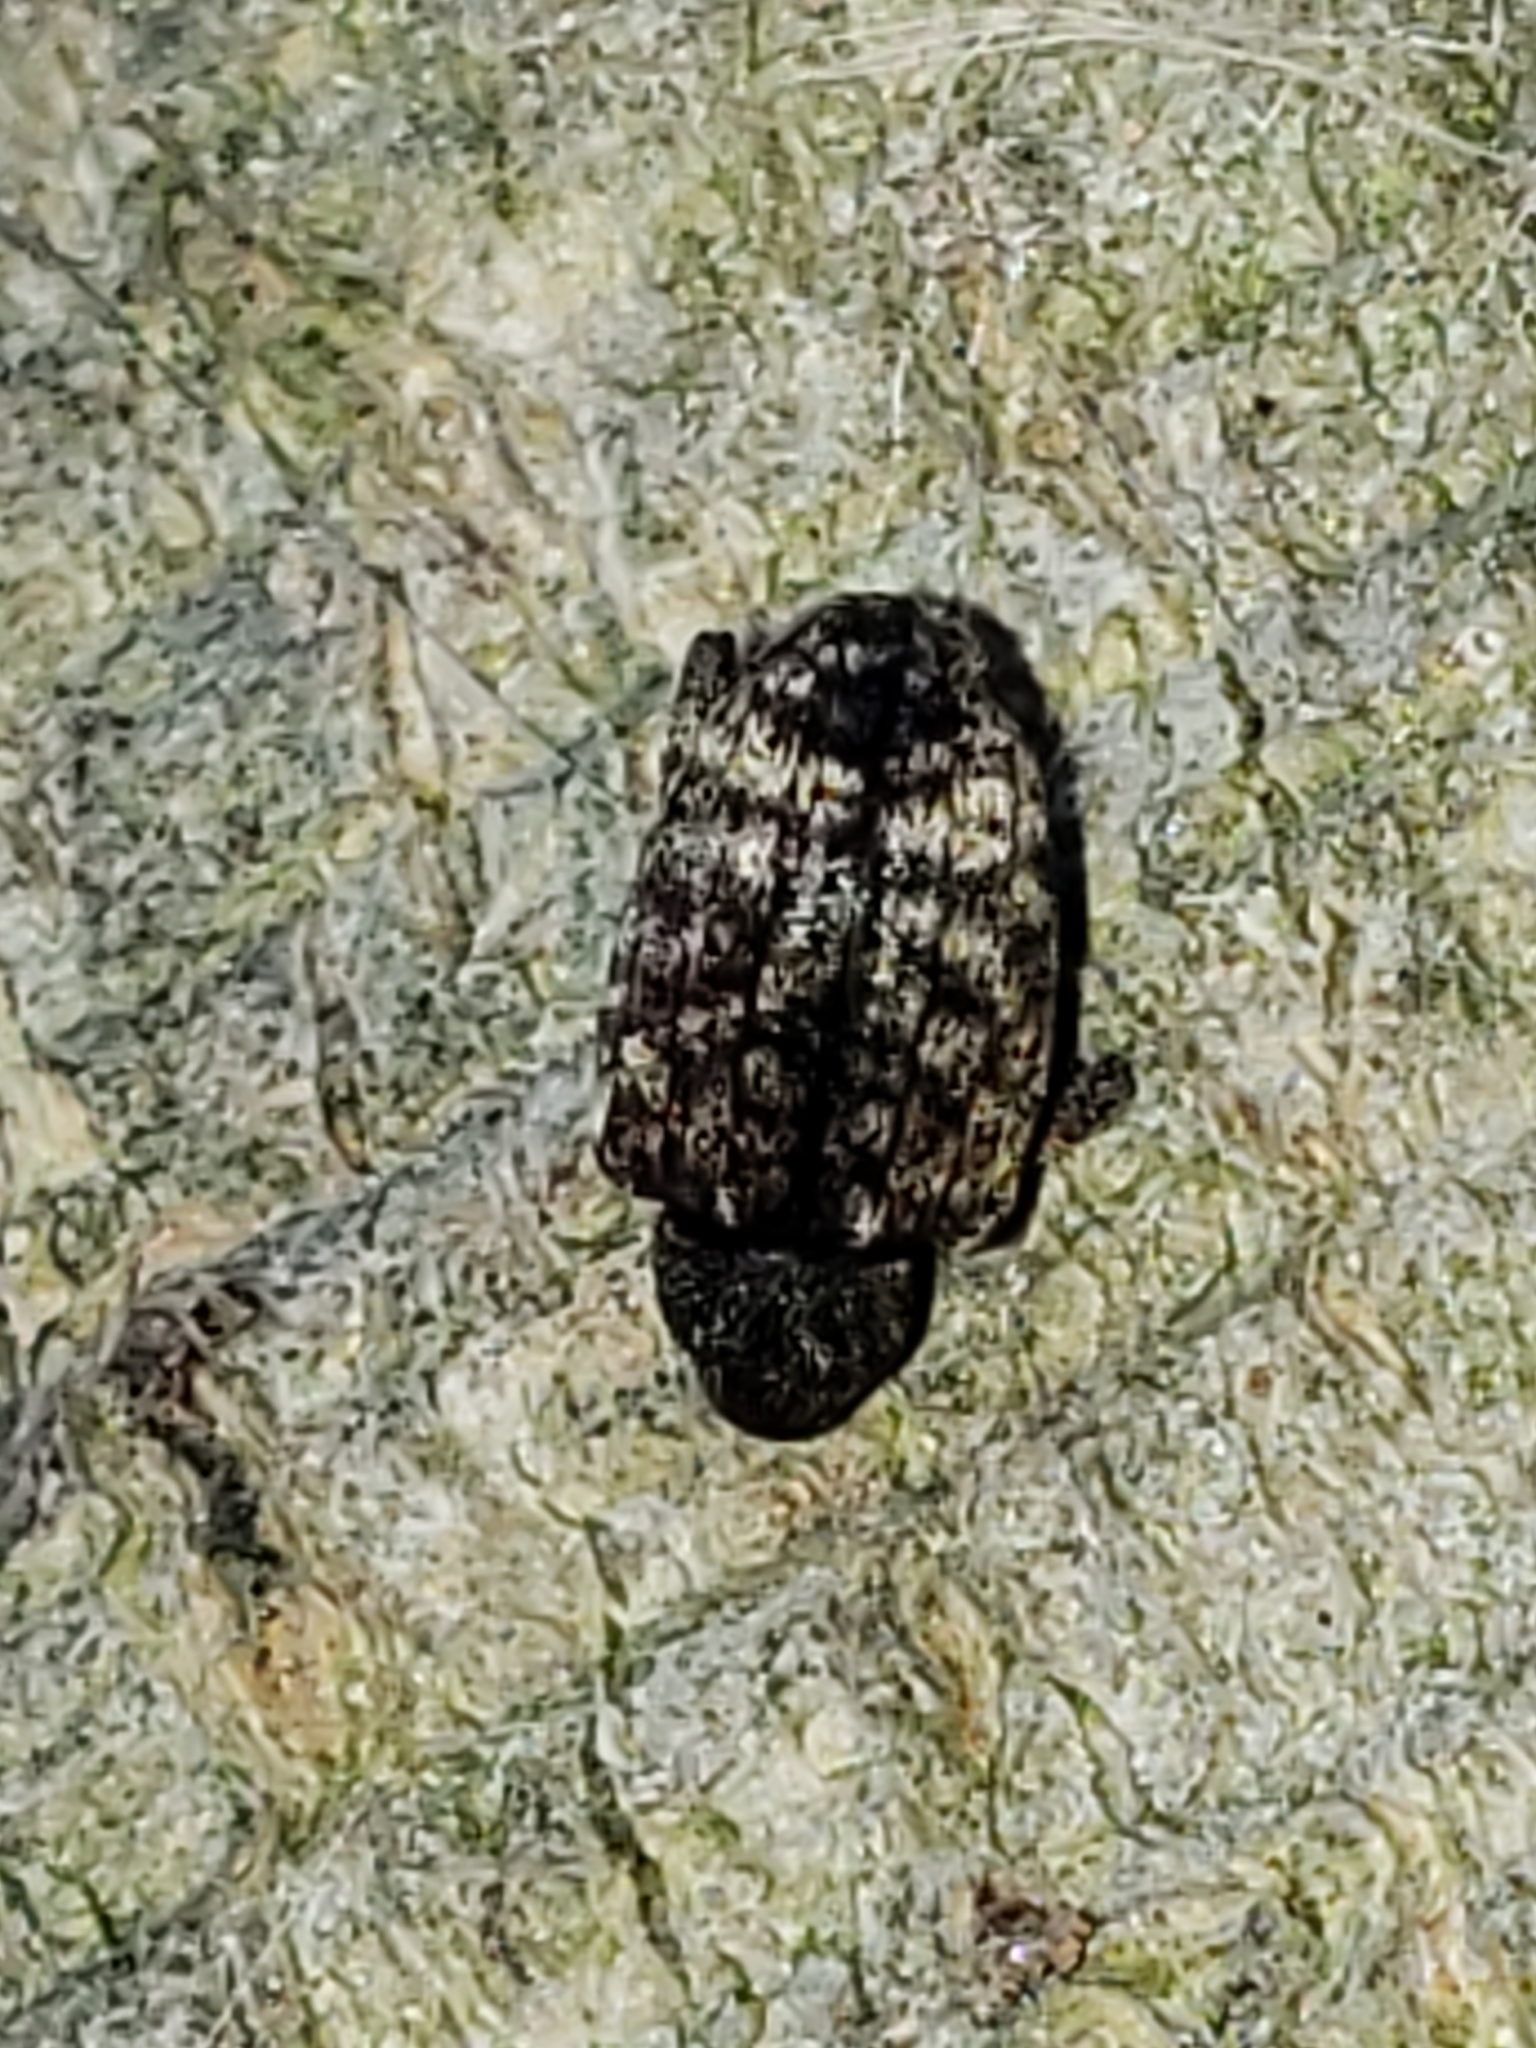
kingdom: Animalia
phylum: Arthropoda
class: Insecta
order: Coleoptera
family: Curculionidae
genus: Conotrachelus
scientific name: Conotrachelus naso
